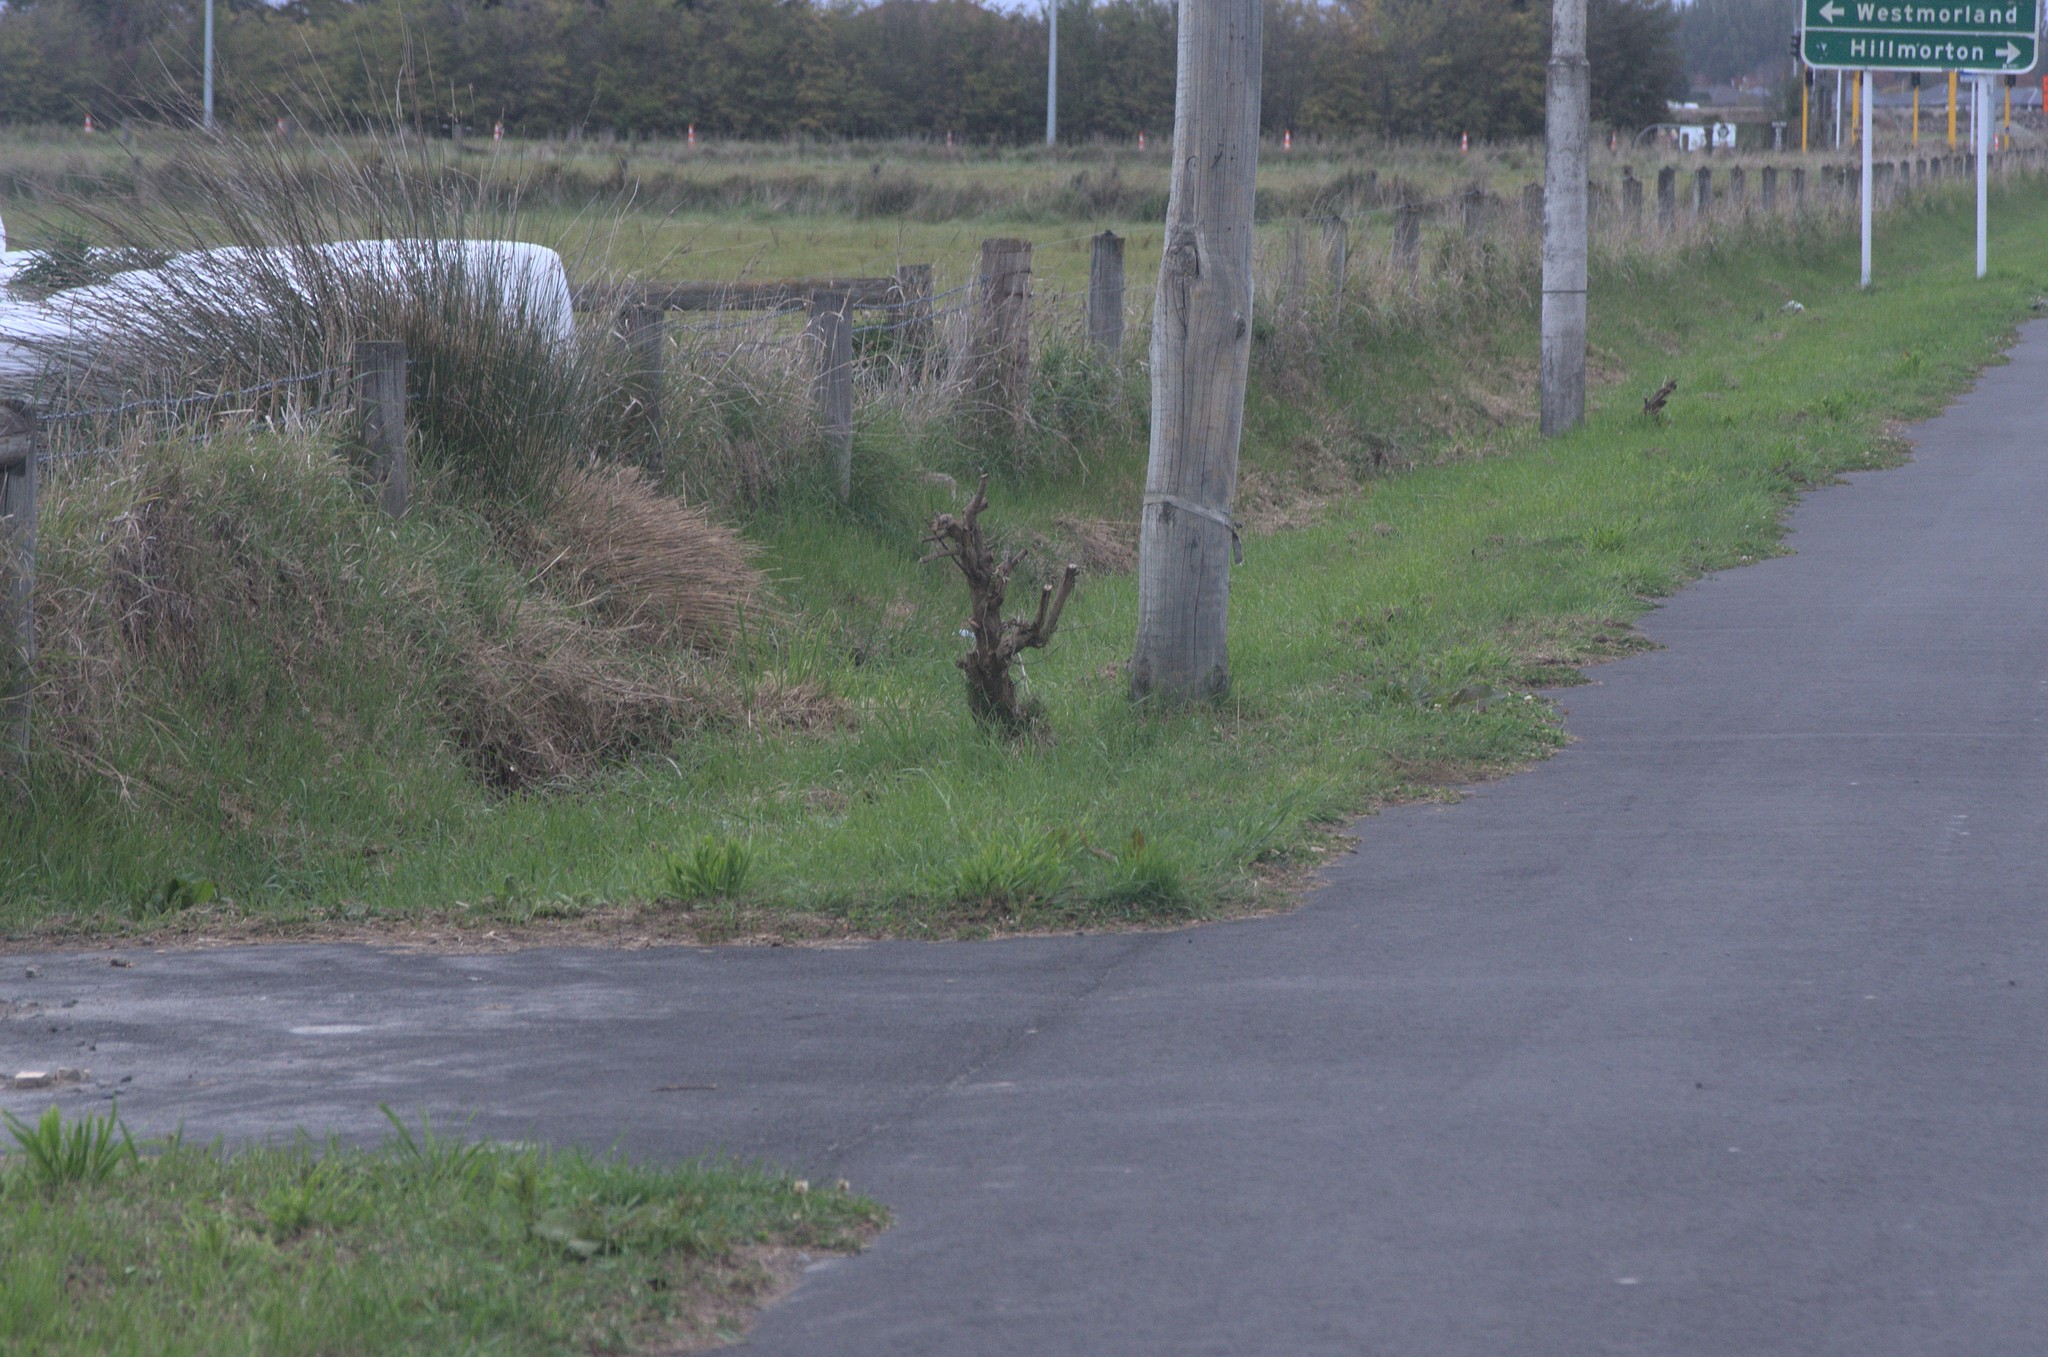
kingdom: Plantae
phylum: Tracheophyta
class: Magnoliopsida
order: Fabales
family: Fabaceae
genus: Lupinus
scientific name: Lupinus arboreus
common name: Yellow bush lupine
